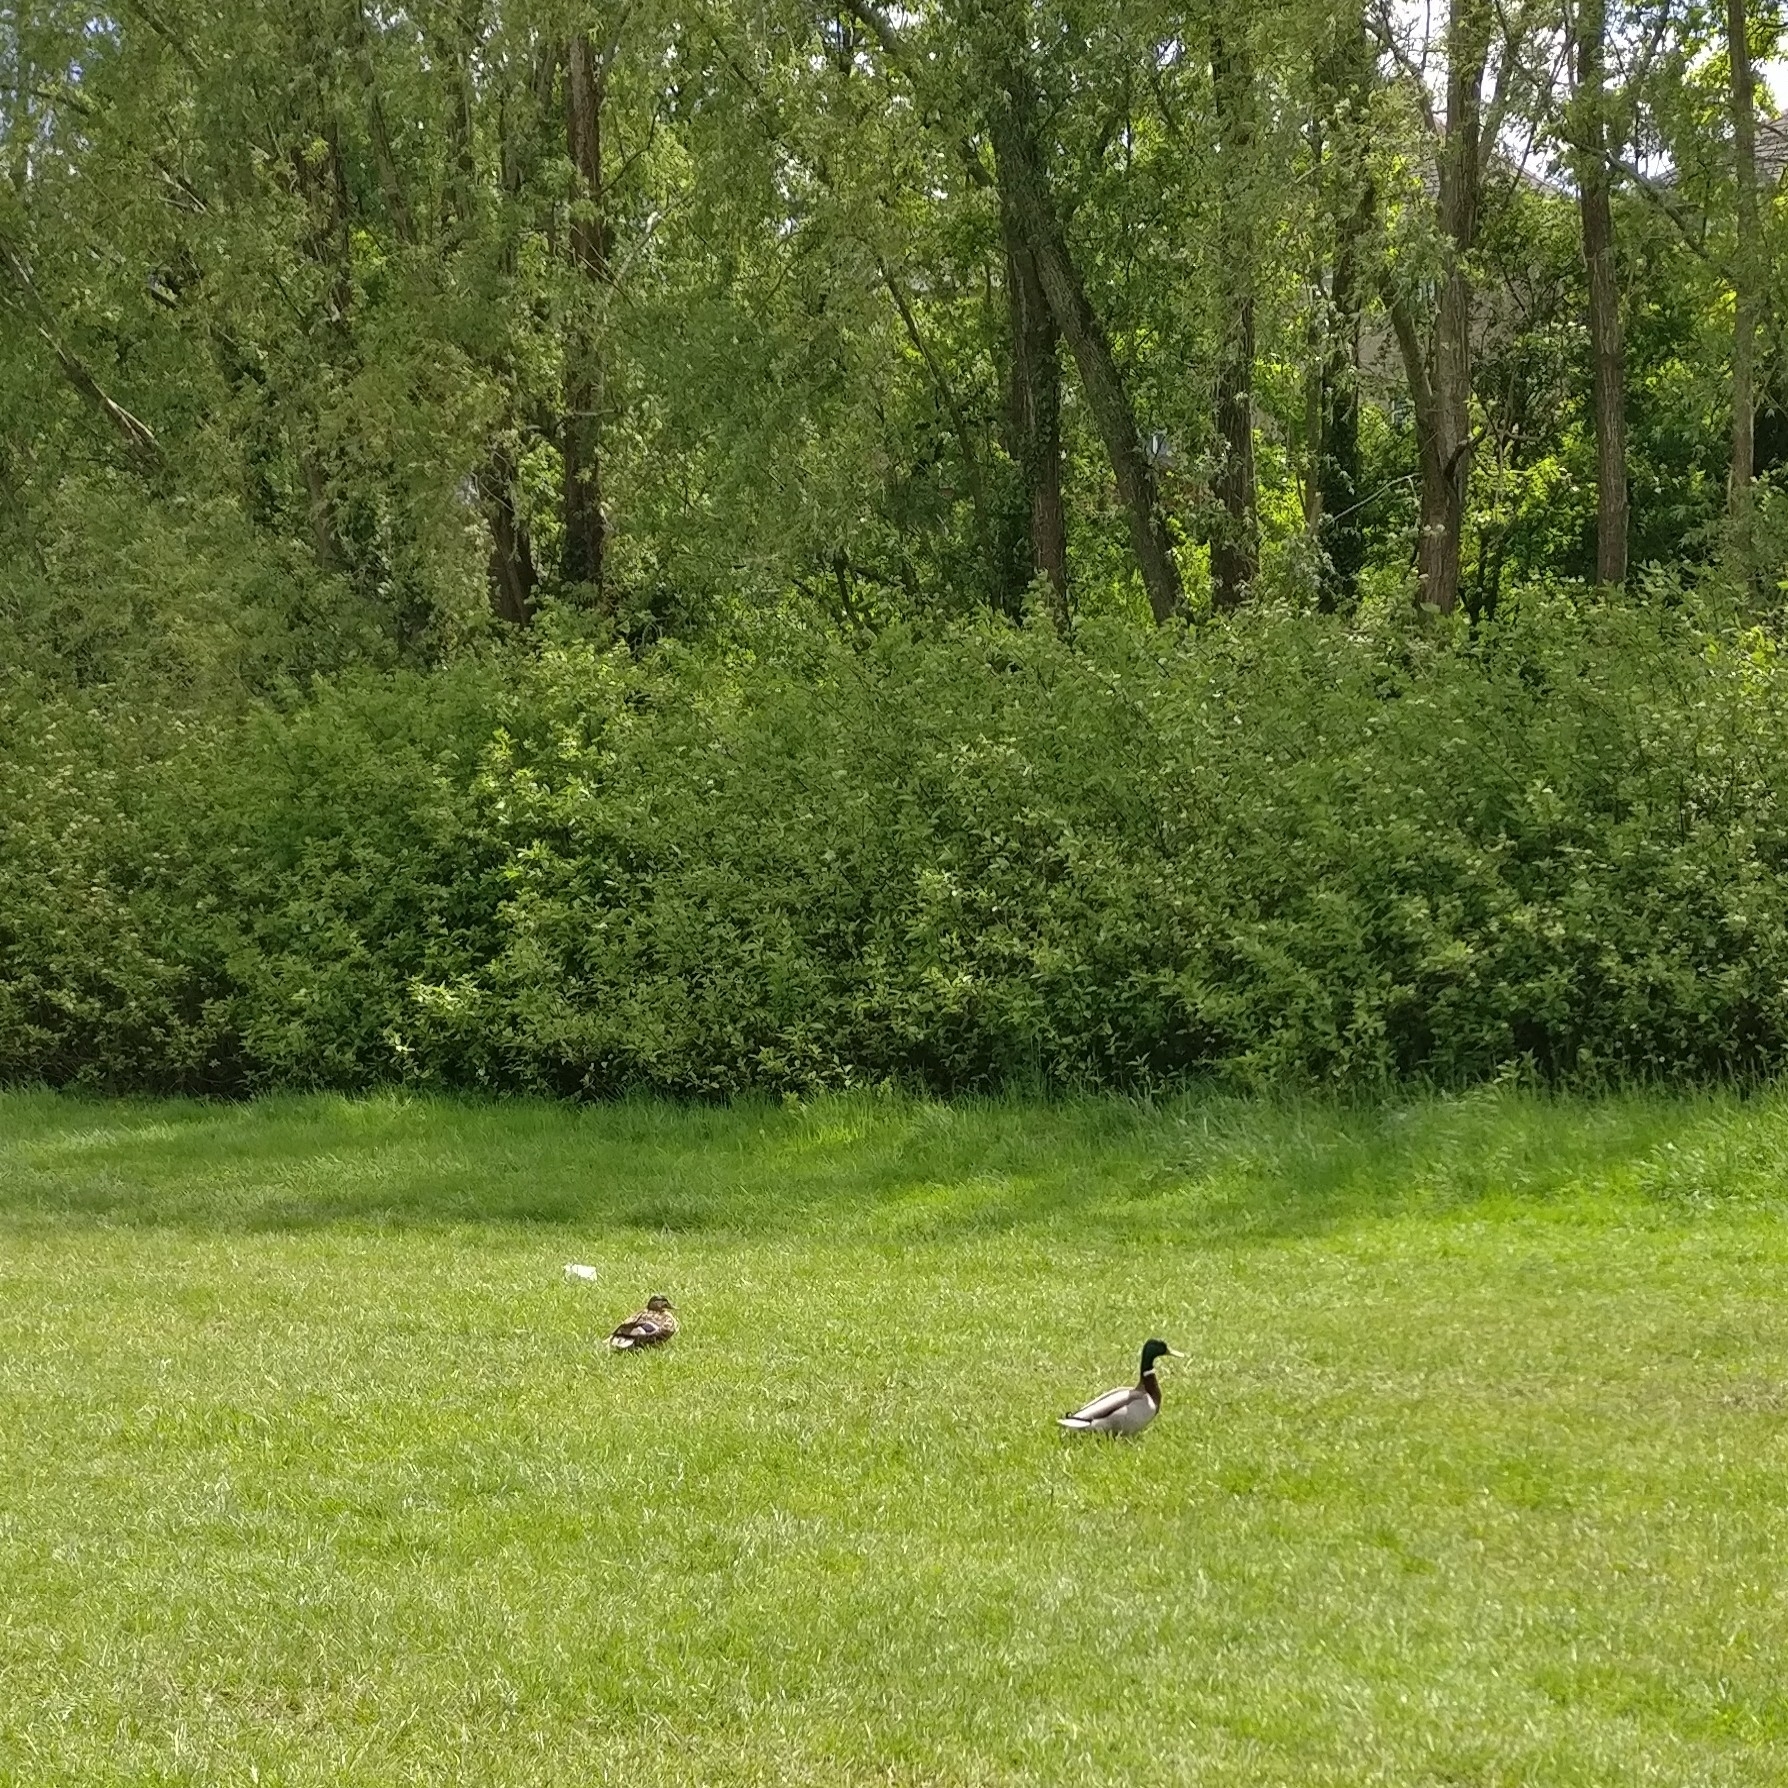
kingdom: Animalia
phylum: Chordata
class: Aves
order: Anseriformes
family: Anatidae
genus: Anas
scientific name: Anas platyrhynchos
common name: Mallard
